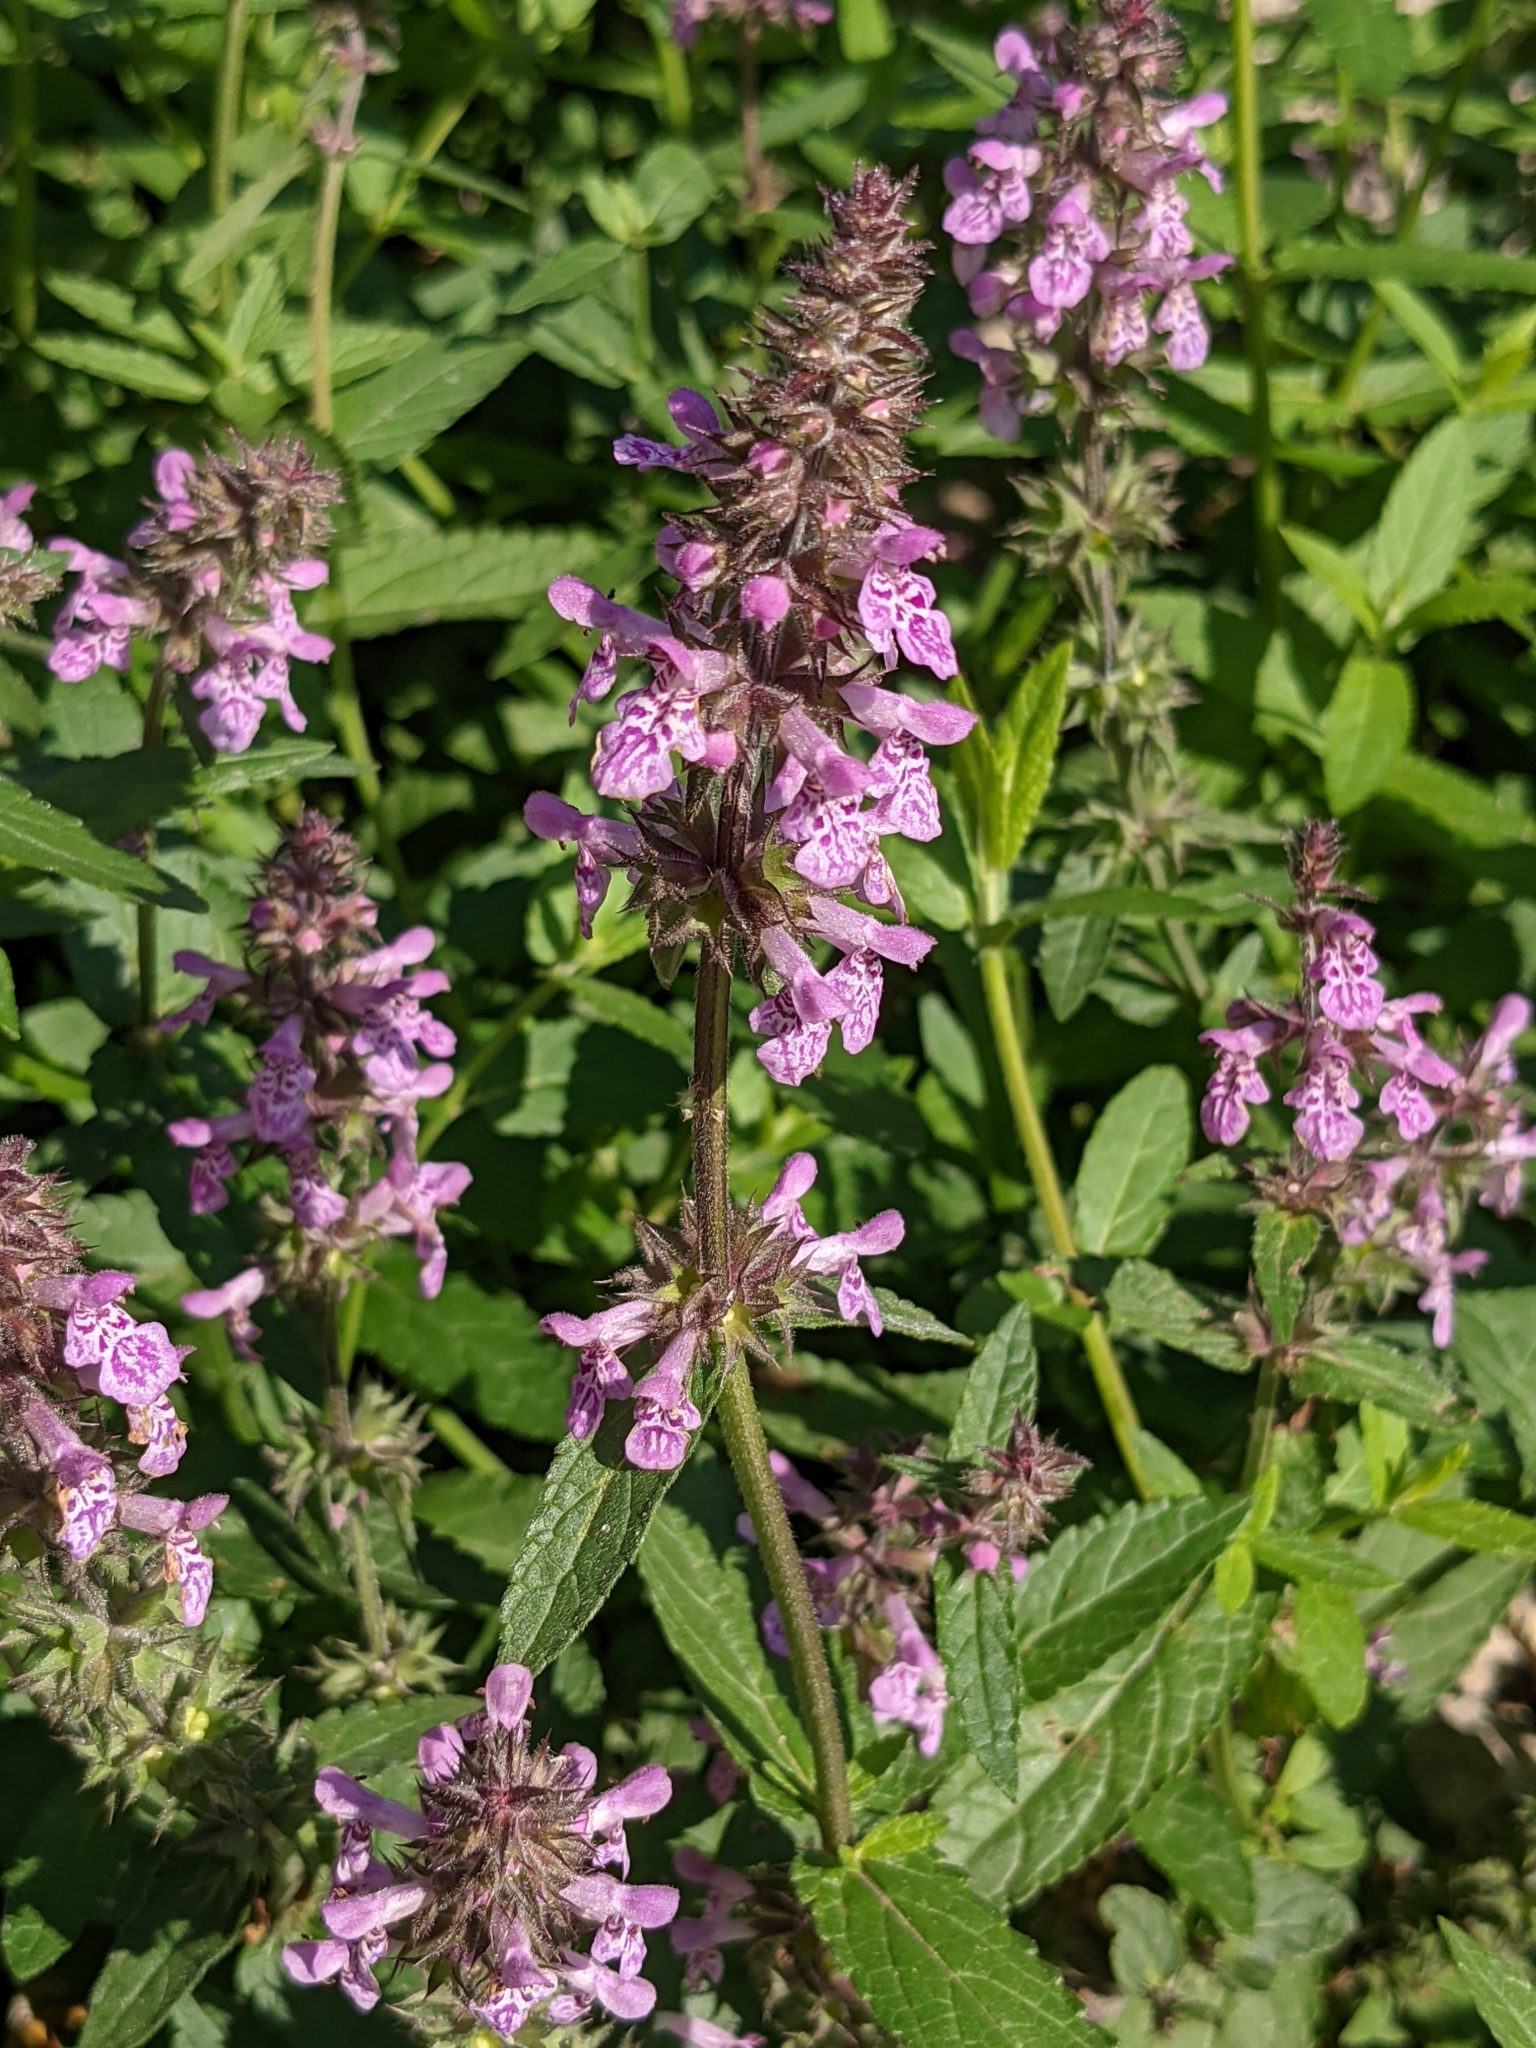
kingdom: Plantae
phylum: Tracheophyta
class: Magnoliopsida
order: Lamiales
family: Lamiaceae
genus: Stachys
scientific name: Stachys palustris
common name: Marsh woundwort
